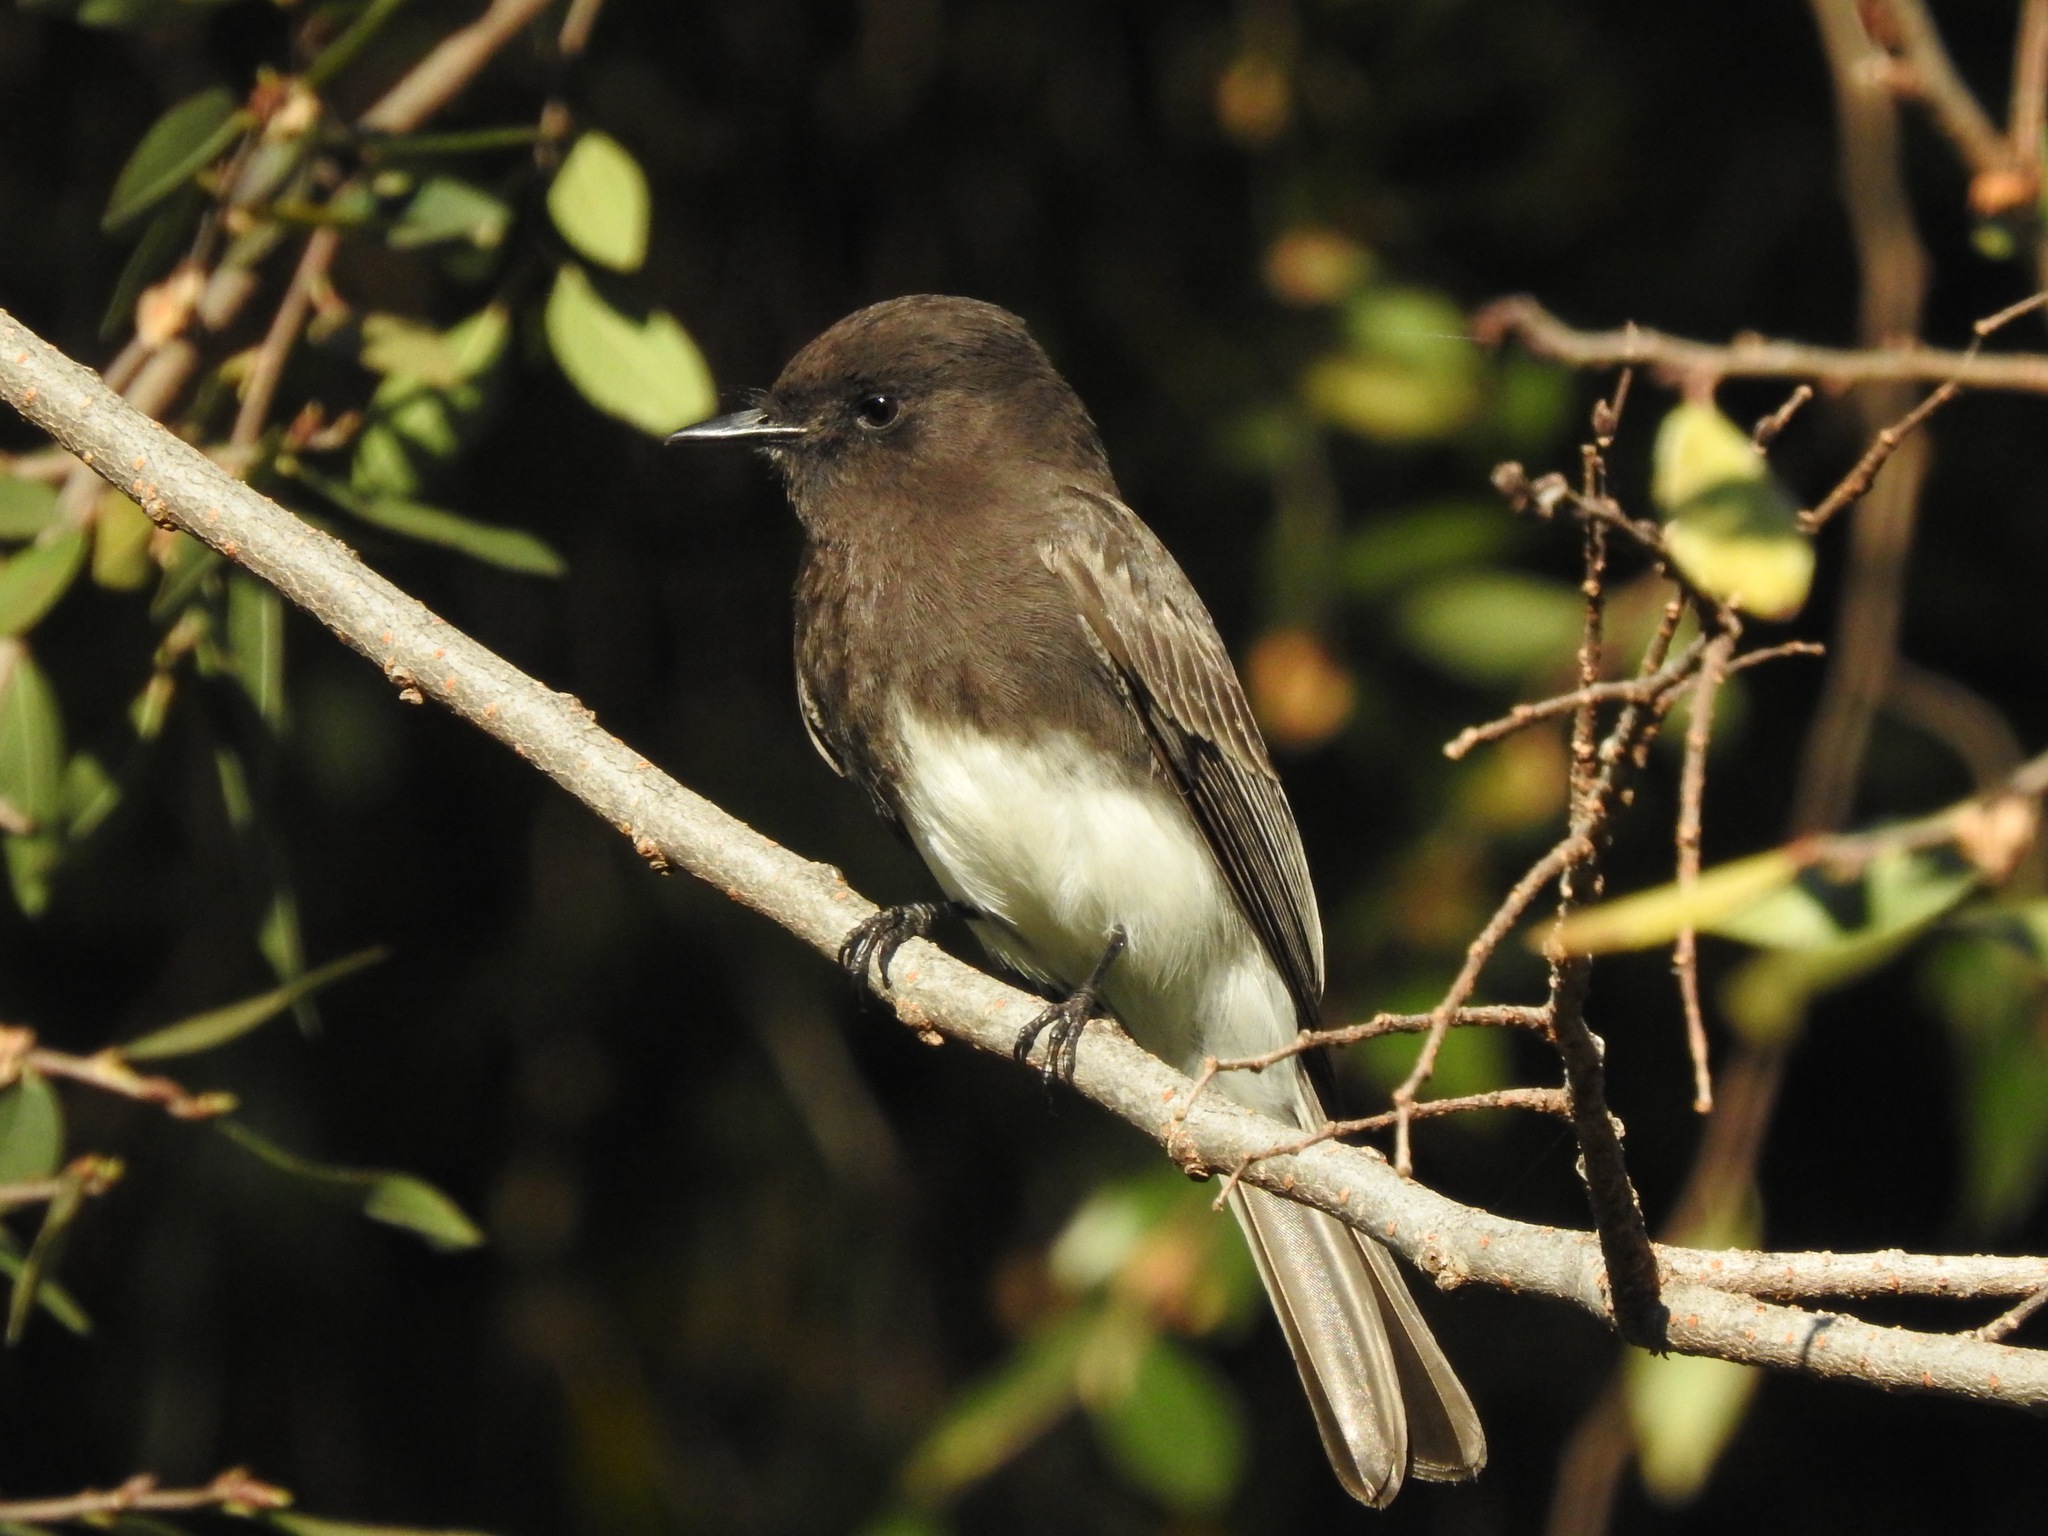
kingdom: Animalia
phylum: Chordata
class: Aves
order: Passeriformes
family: Tyrannidae
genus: Sayornis
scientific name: Sayornis nigricans
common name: Black phoebe
